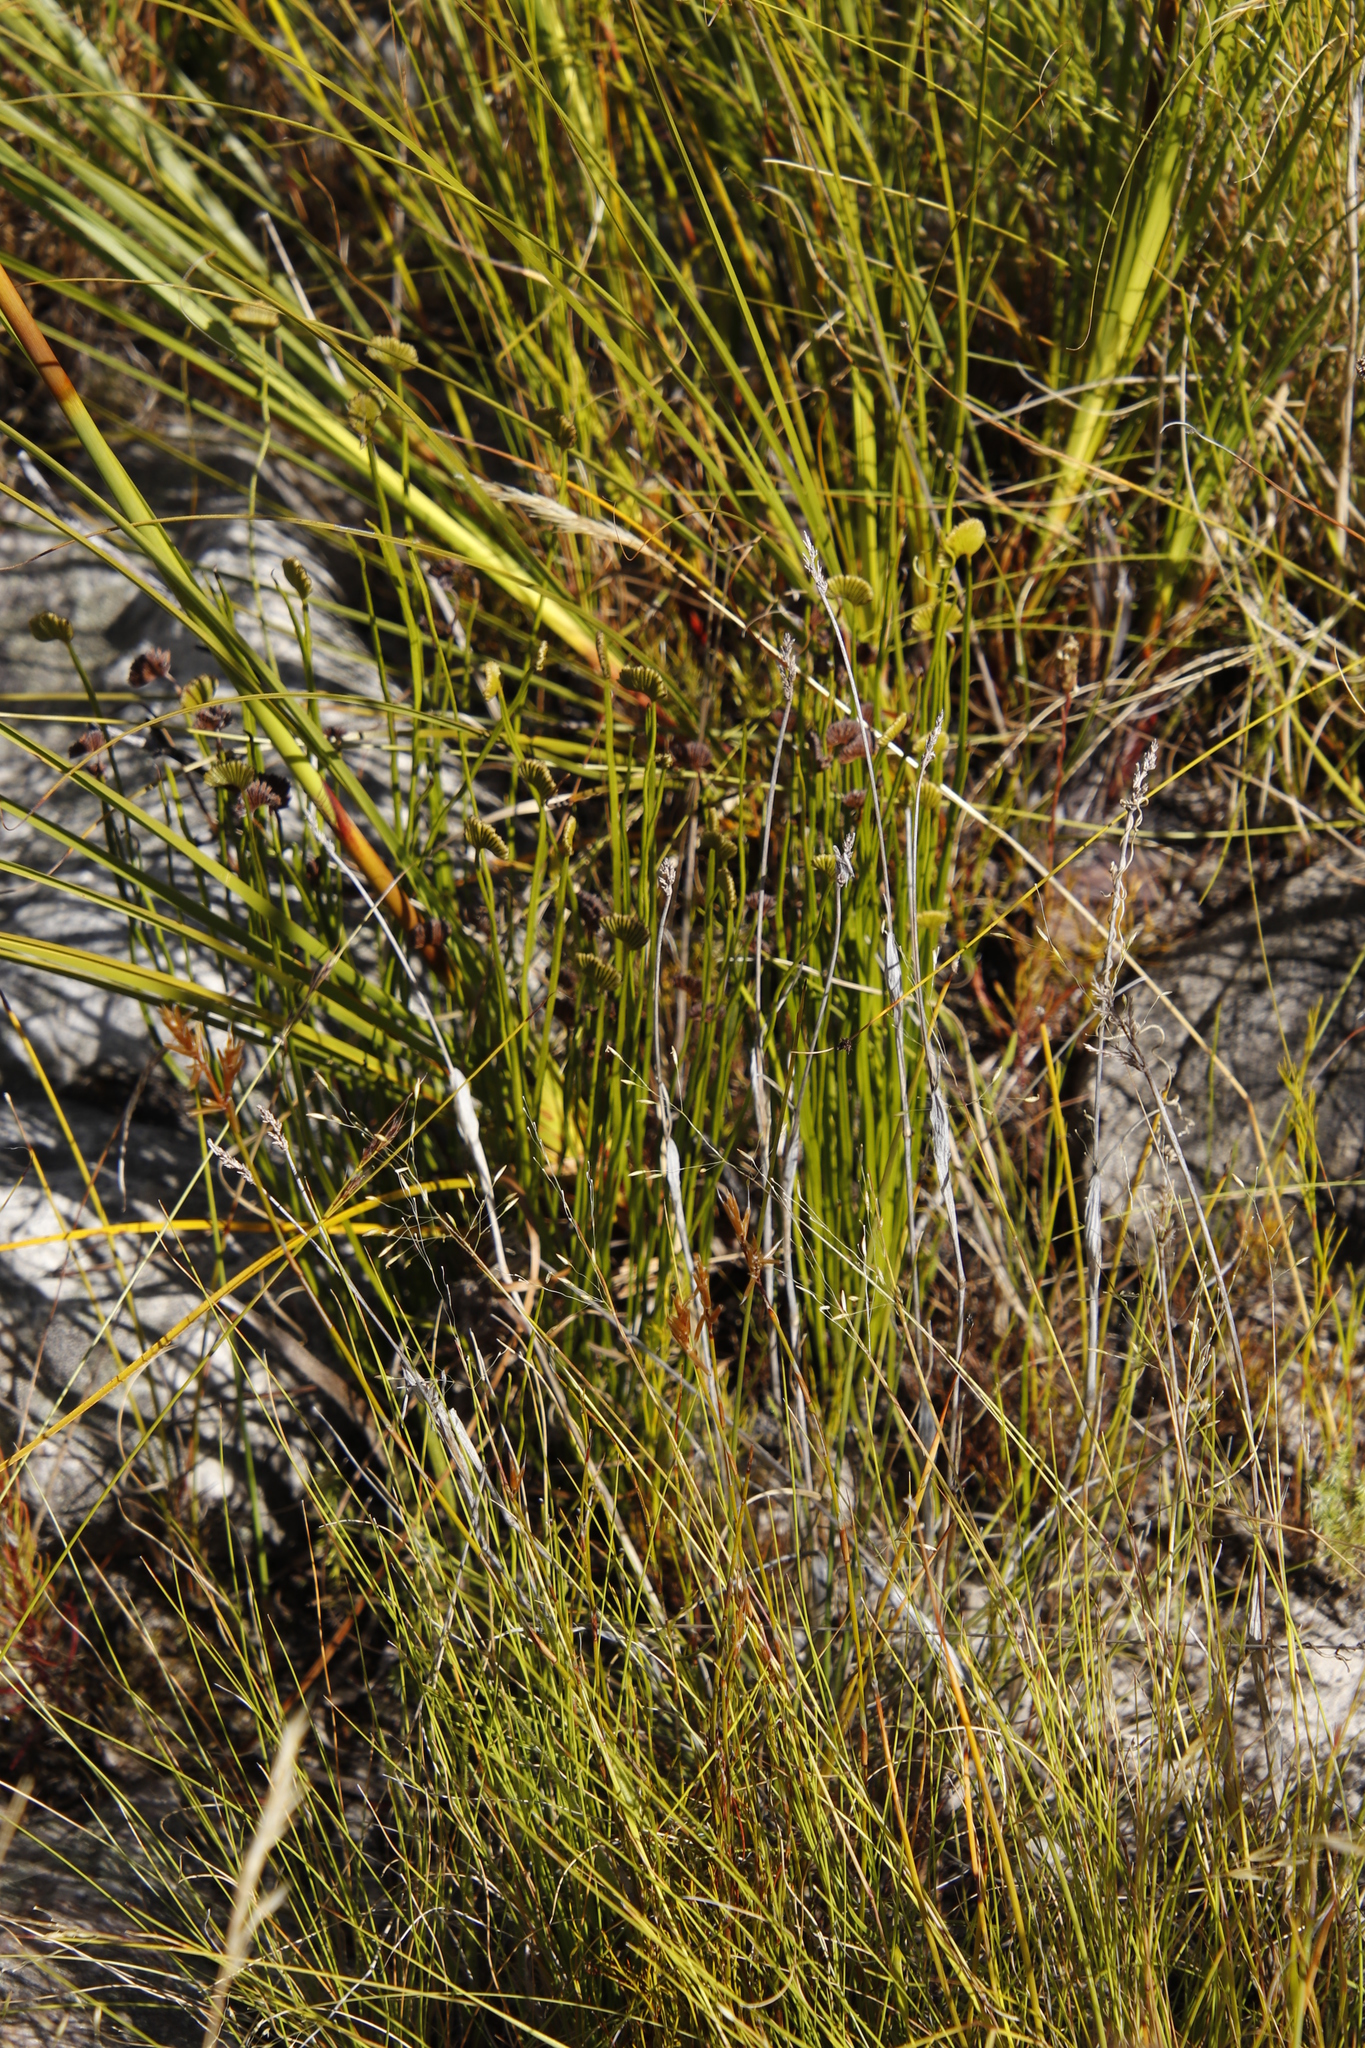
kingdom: Plantae
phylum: Tracheophyta
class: Polypodiopsida
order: Schizaeales
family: Schizaeaceae
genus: Schizaea
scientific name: Schizaea pectinata
